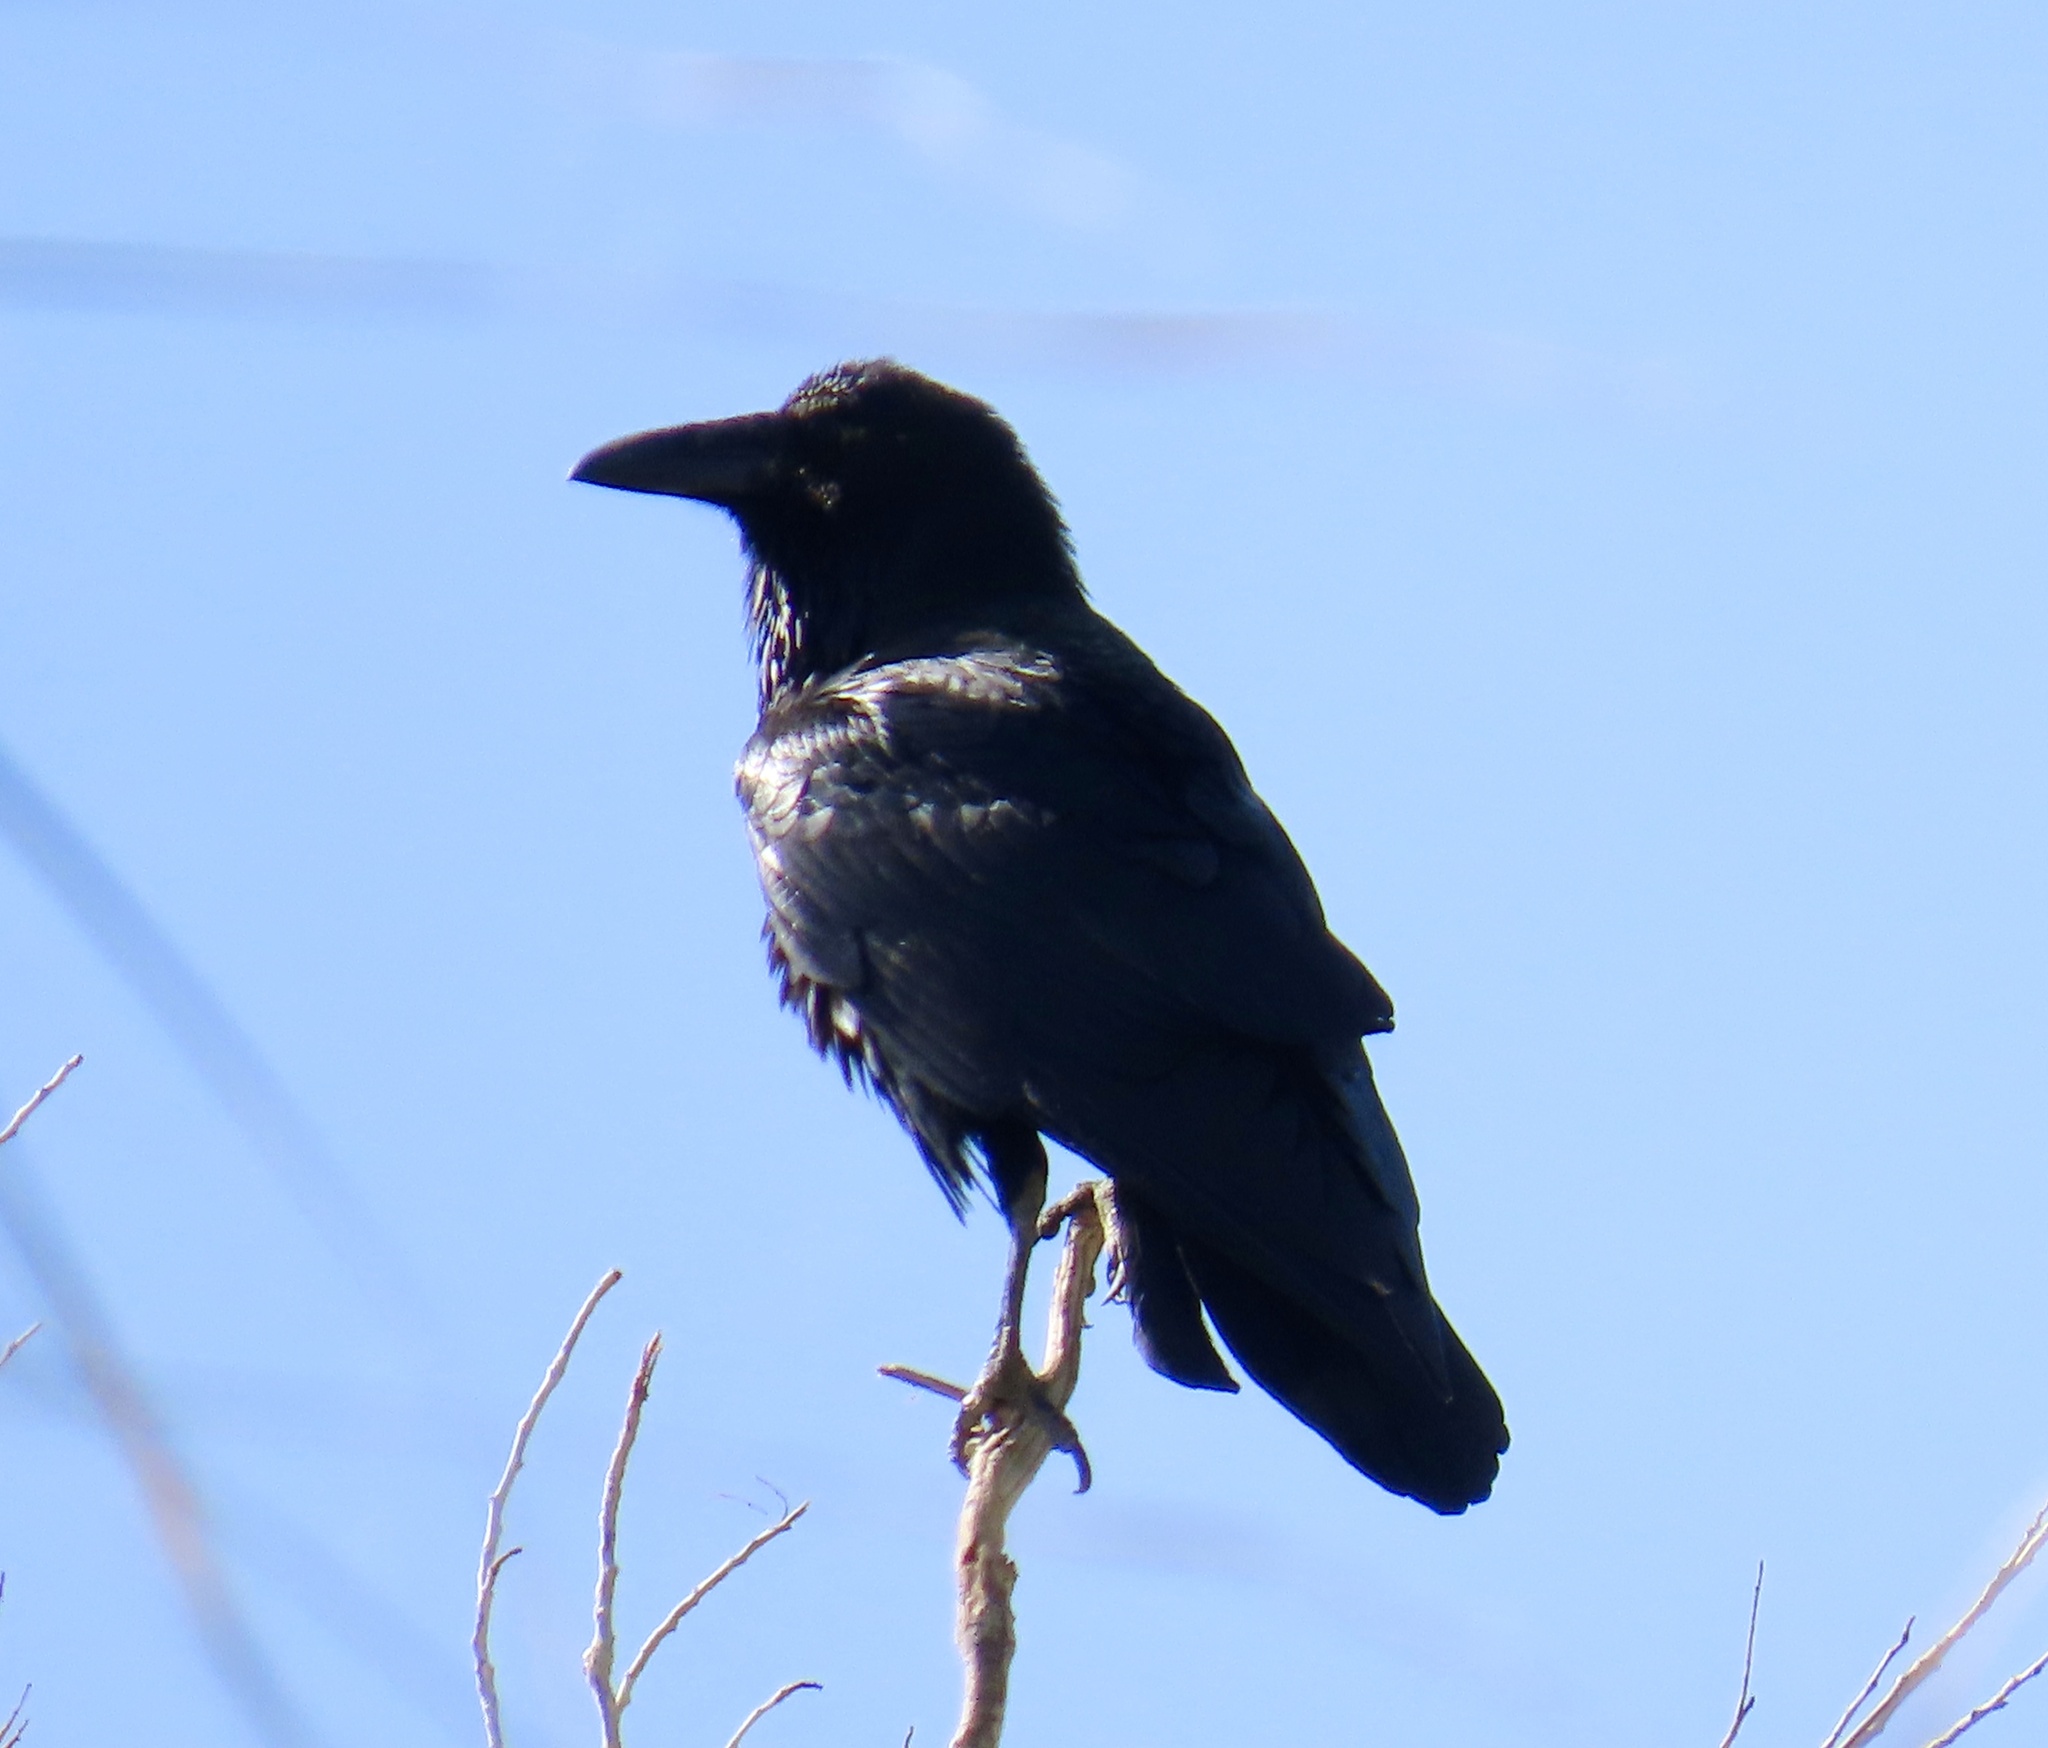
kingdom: Animalia
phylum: Chordata
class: Aves
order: Passeriformes
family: Corvidae
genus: Corvus
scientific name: Corvus corax
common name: Common raven
